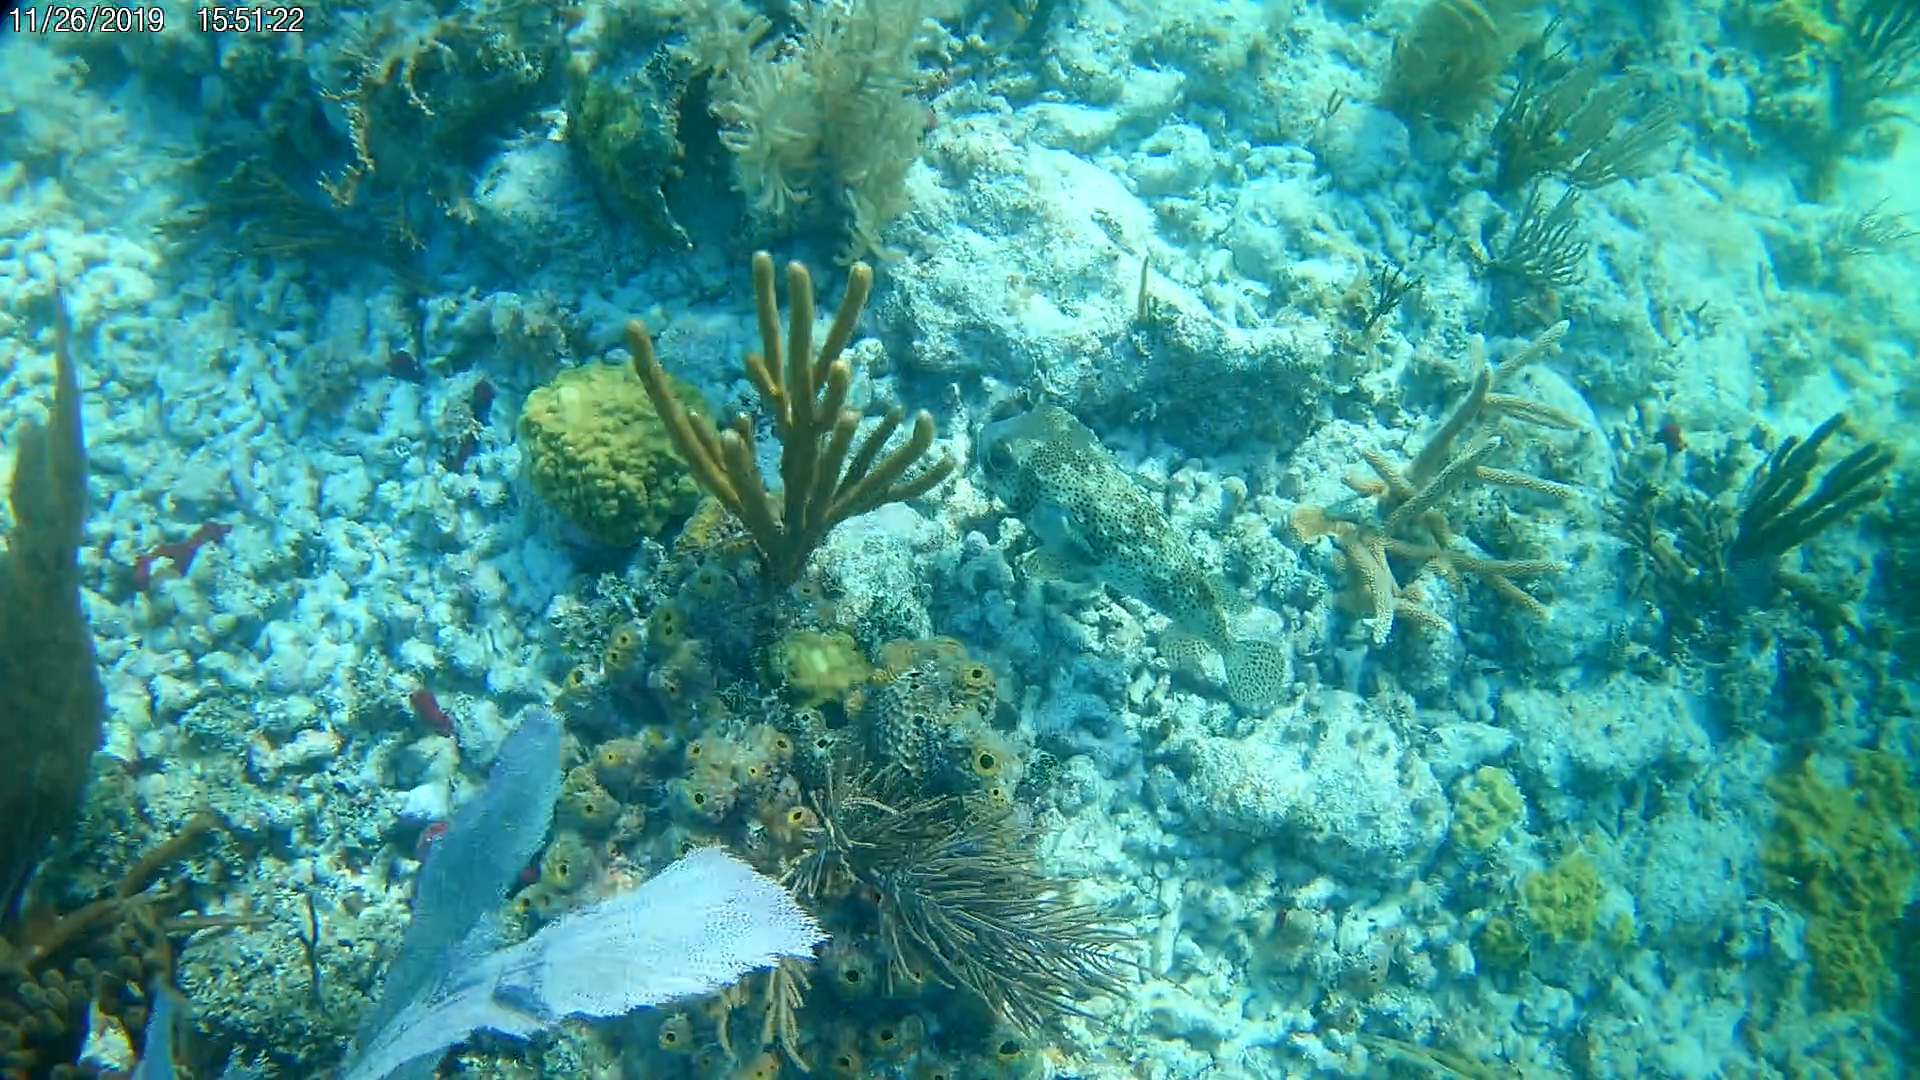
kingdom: Animalia
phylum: Chordata
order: Tetraodontiformes
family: Diodontidae
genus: Chilomycterus
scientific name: Chilomycterus reticulatus
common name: Spotfin burrfish
